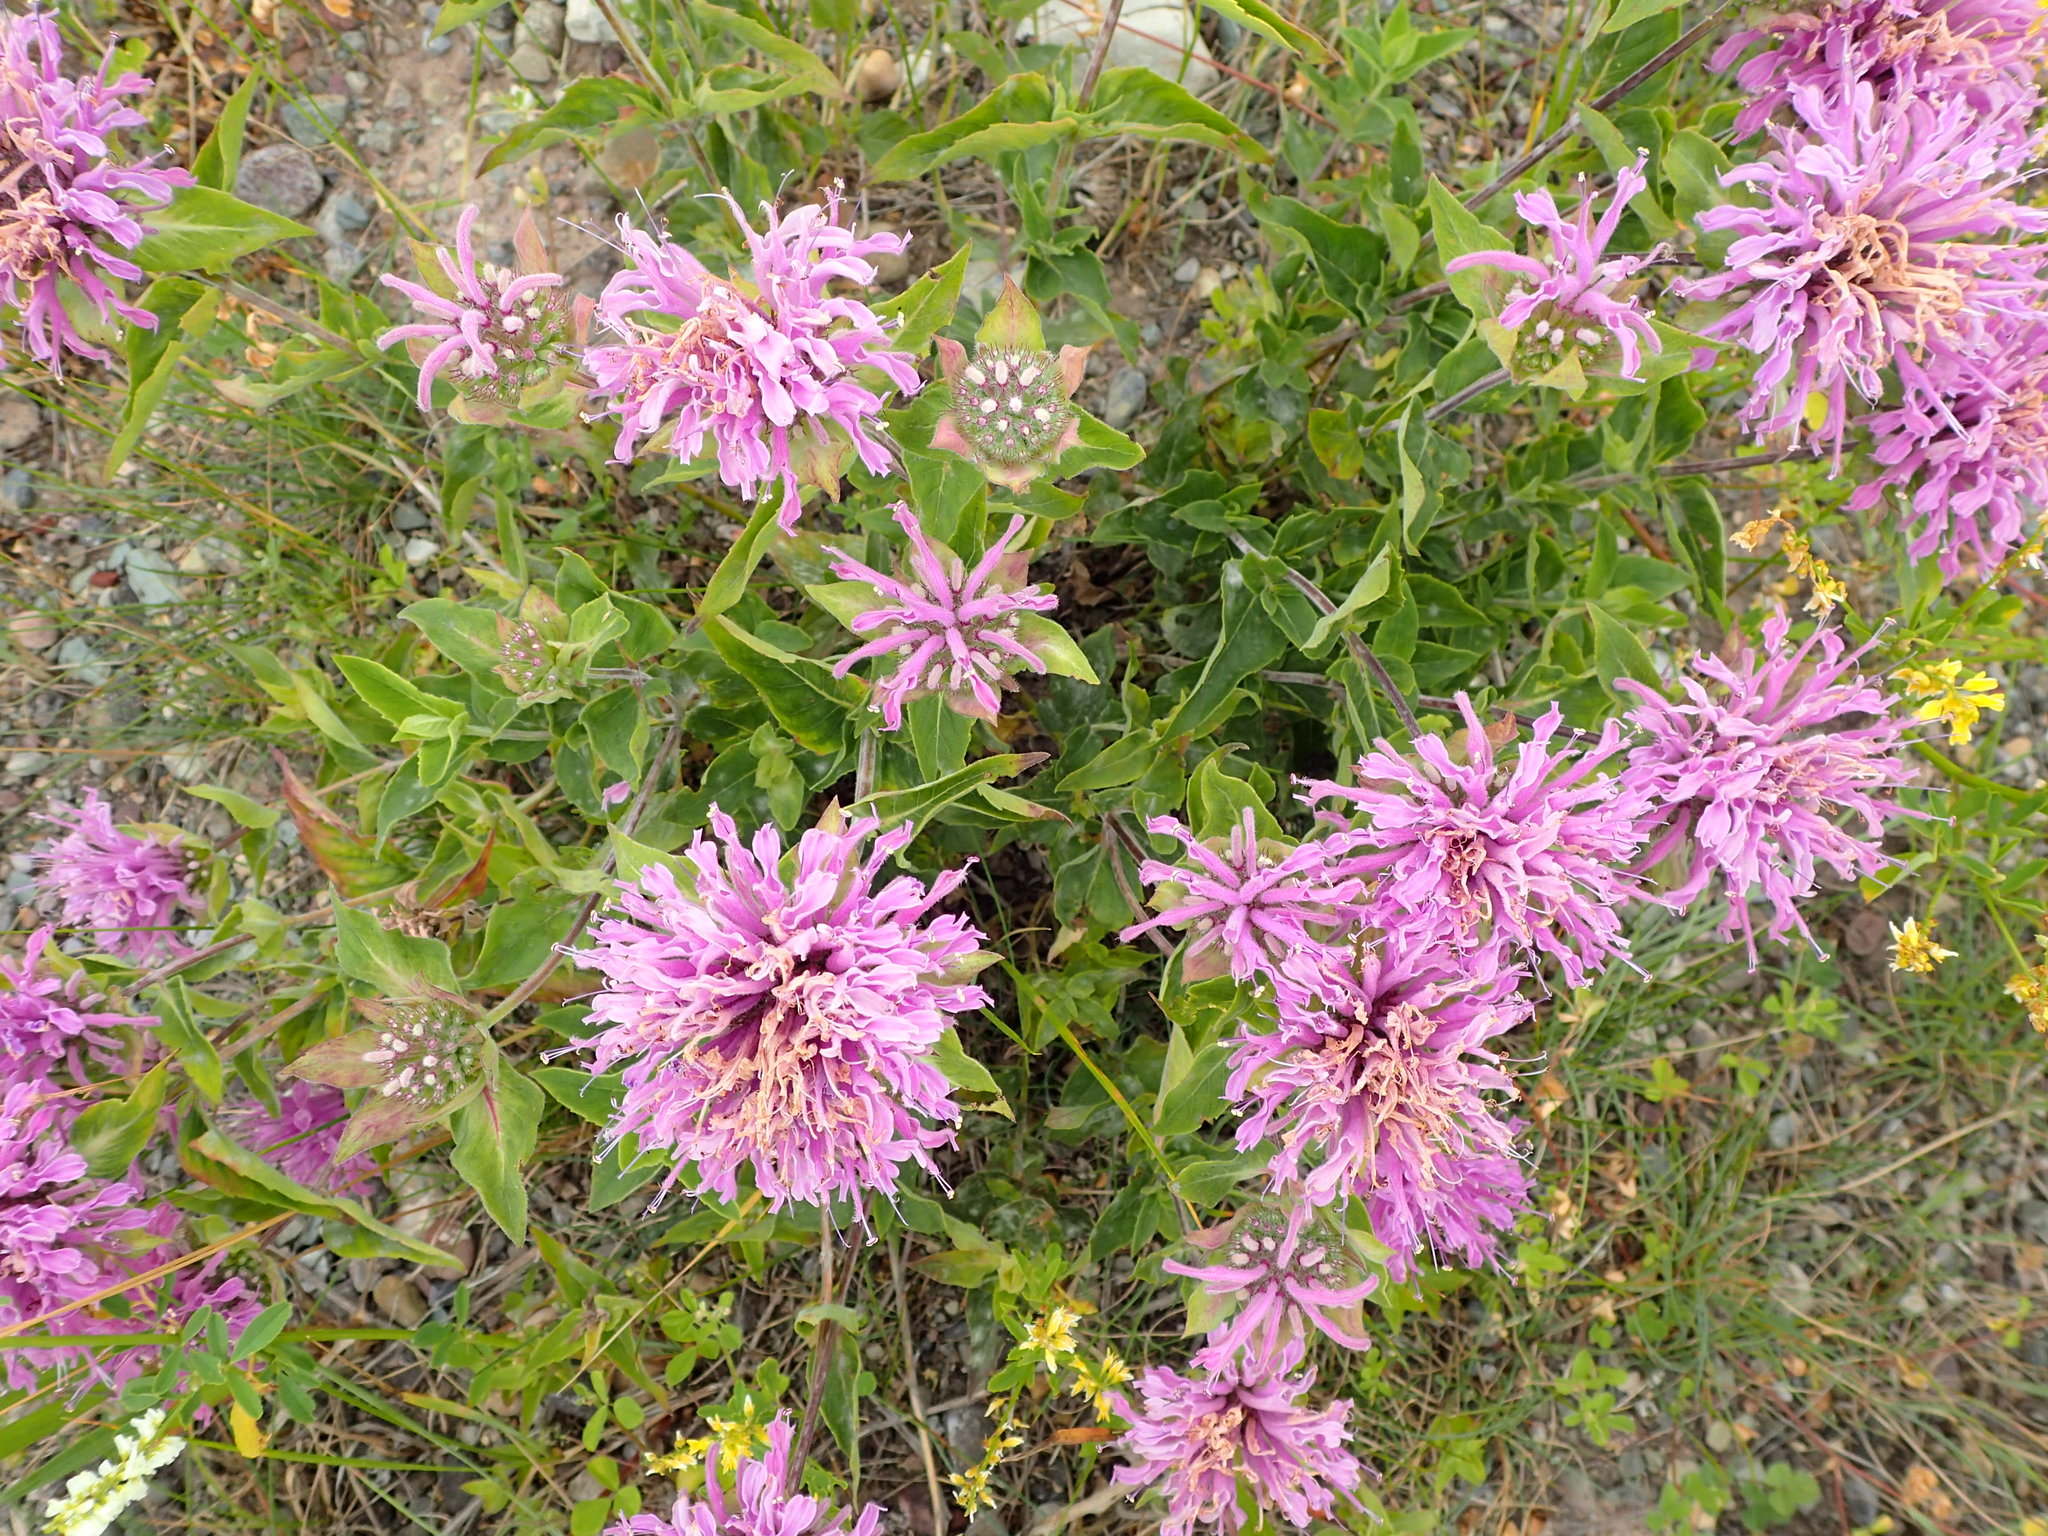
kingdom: Plantae
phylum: Tracheophyta
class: Magnoliopsida
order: Lamiales
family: Lamiaceae
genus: Monarda
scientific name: Monarda fistulosa
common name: Purple beebalm
